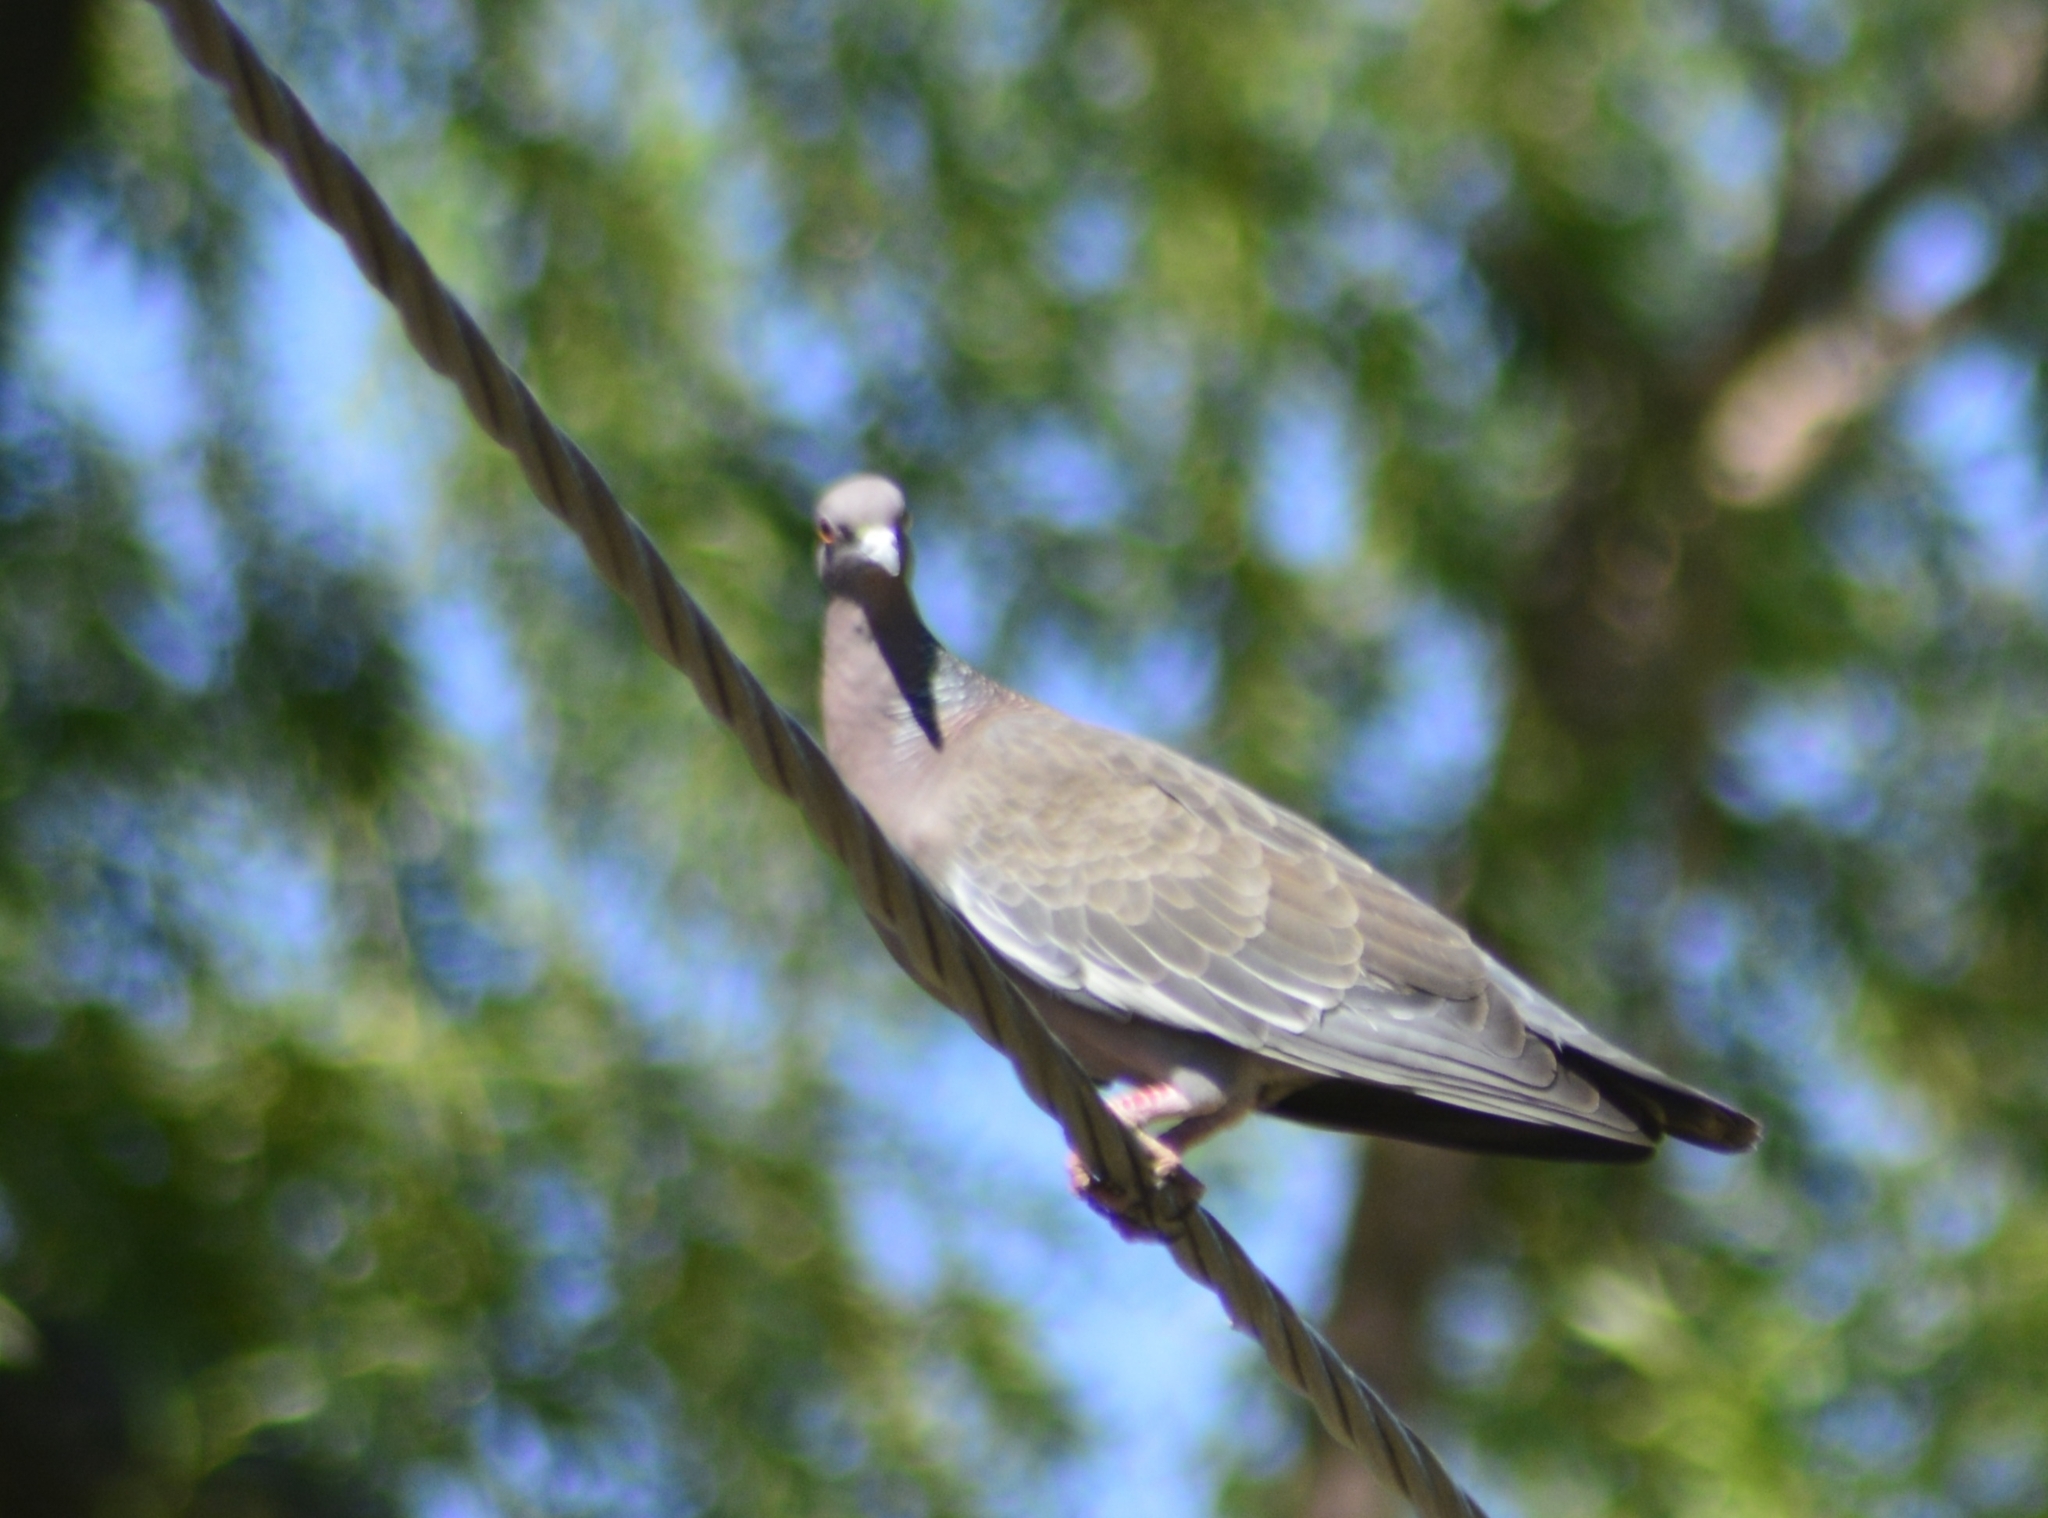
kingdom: Animalia
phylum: Chordata
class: Aves
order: Columbiformes
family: Columbidae
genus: Patagioenas
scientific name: Patagioenas picazuro
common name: Picazuro pigeon
